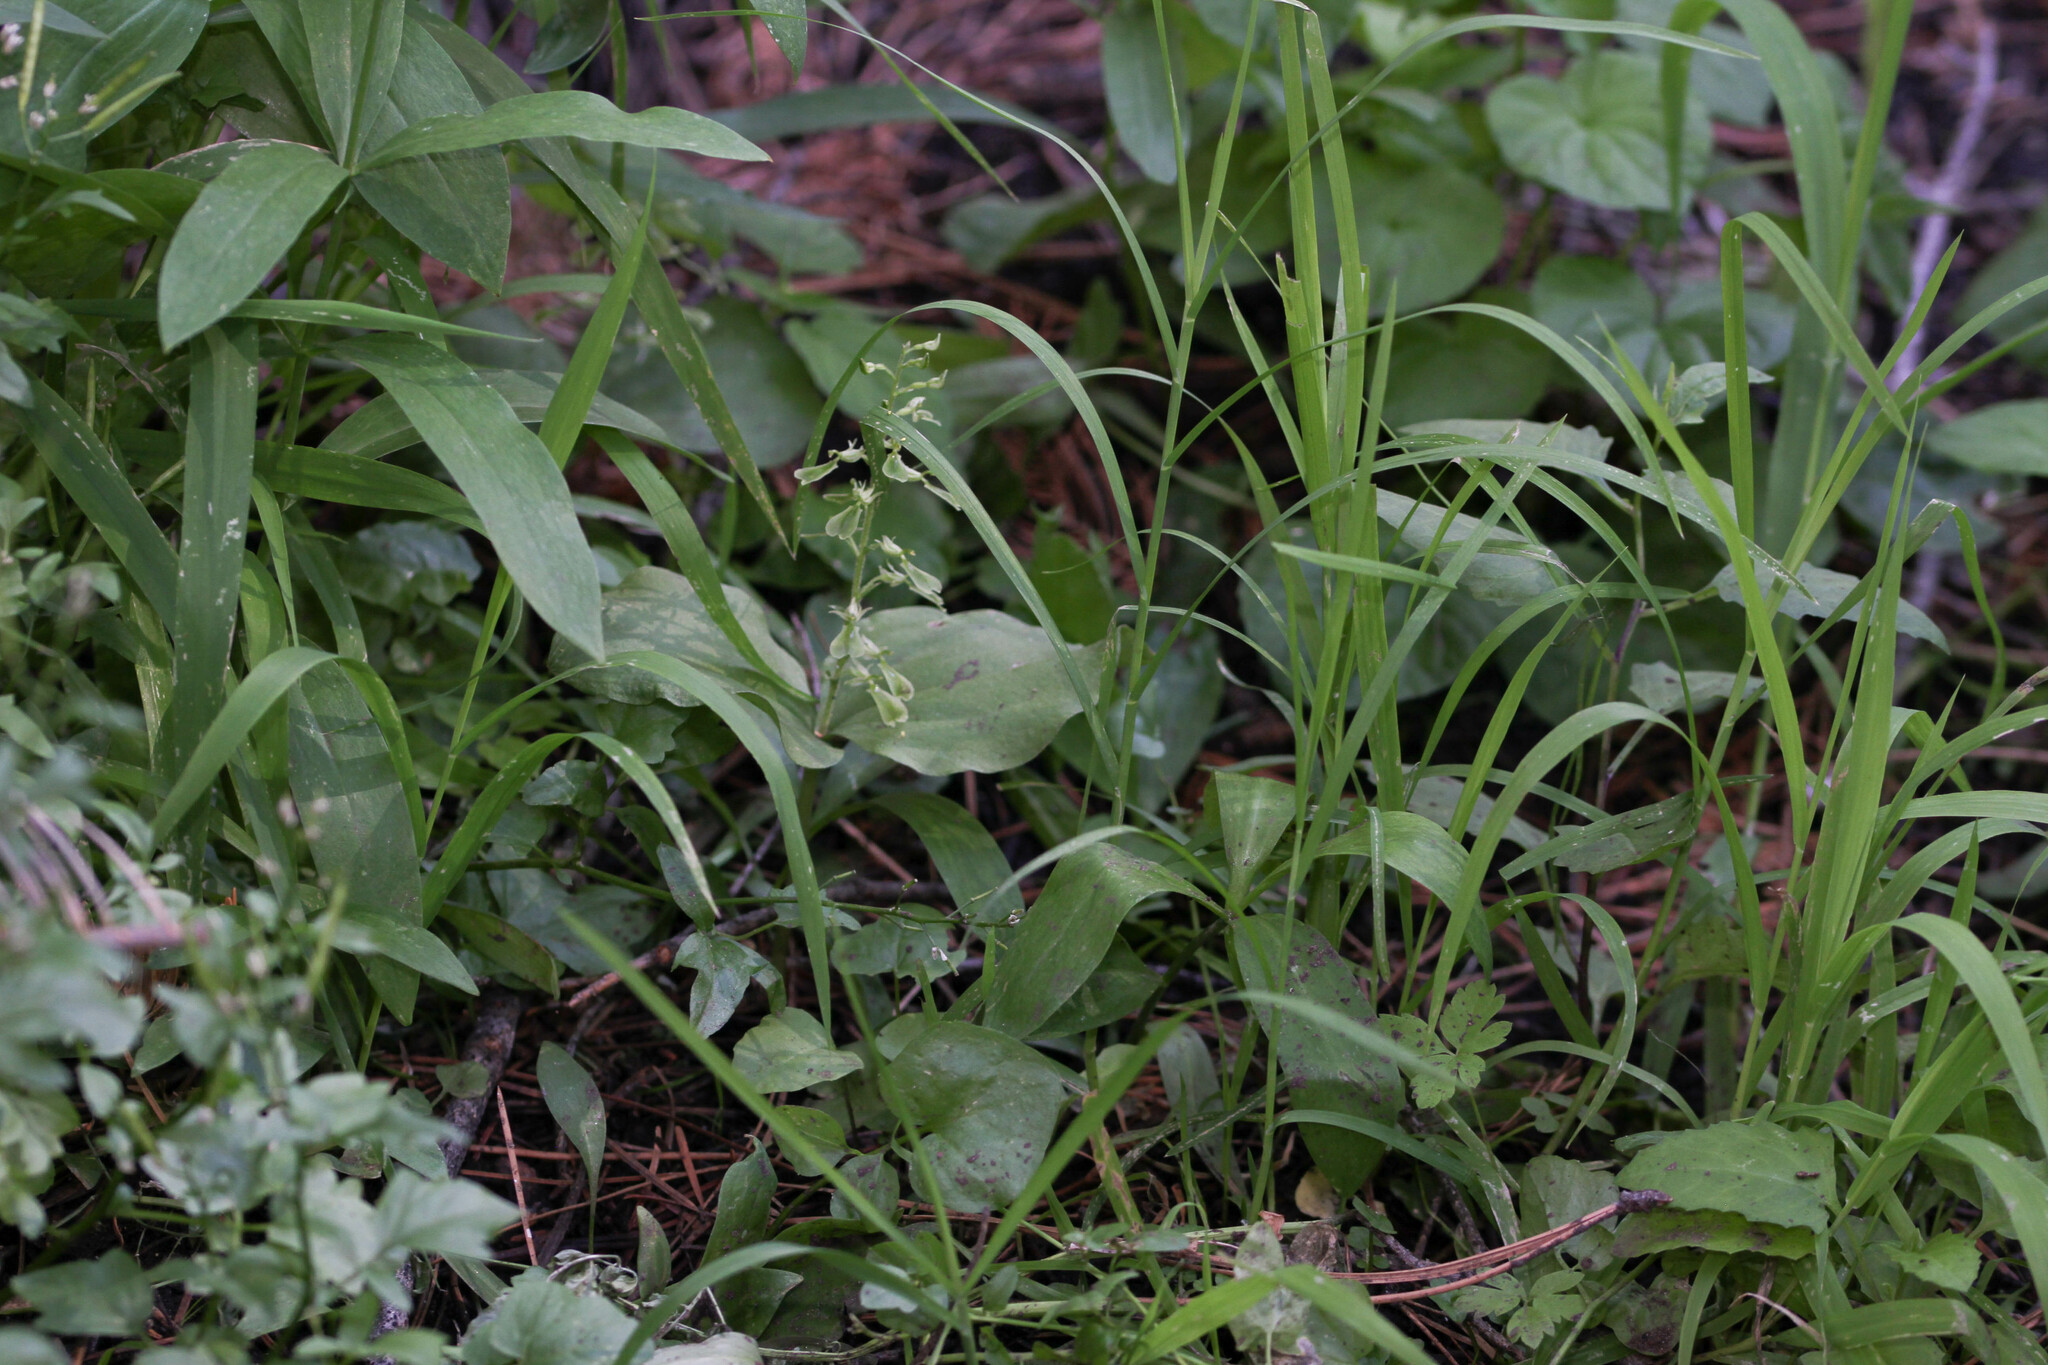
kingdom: Plantae
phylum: Tracheophyta
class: Liliopsida
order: Asparagales
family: Orchidaceae
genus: Neottia
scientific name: Neottia convallarioides
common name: Broadleaf twayblade
